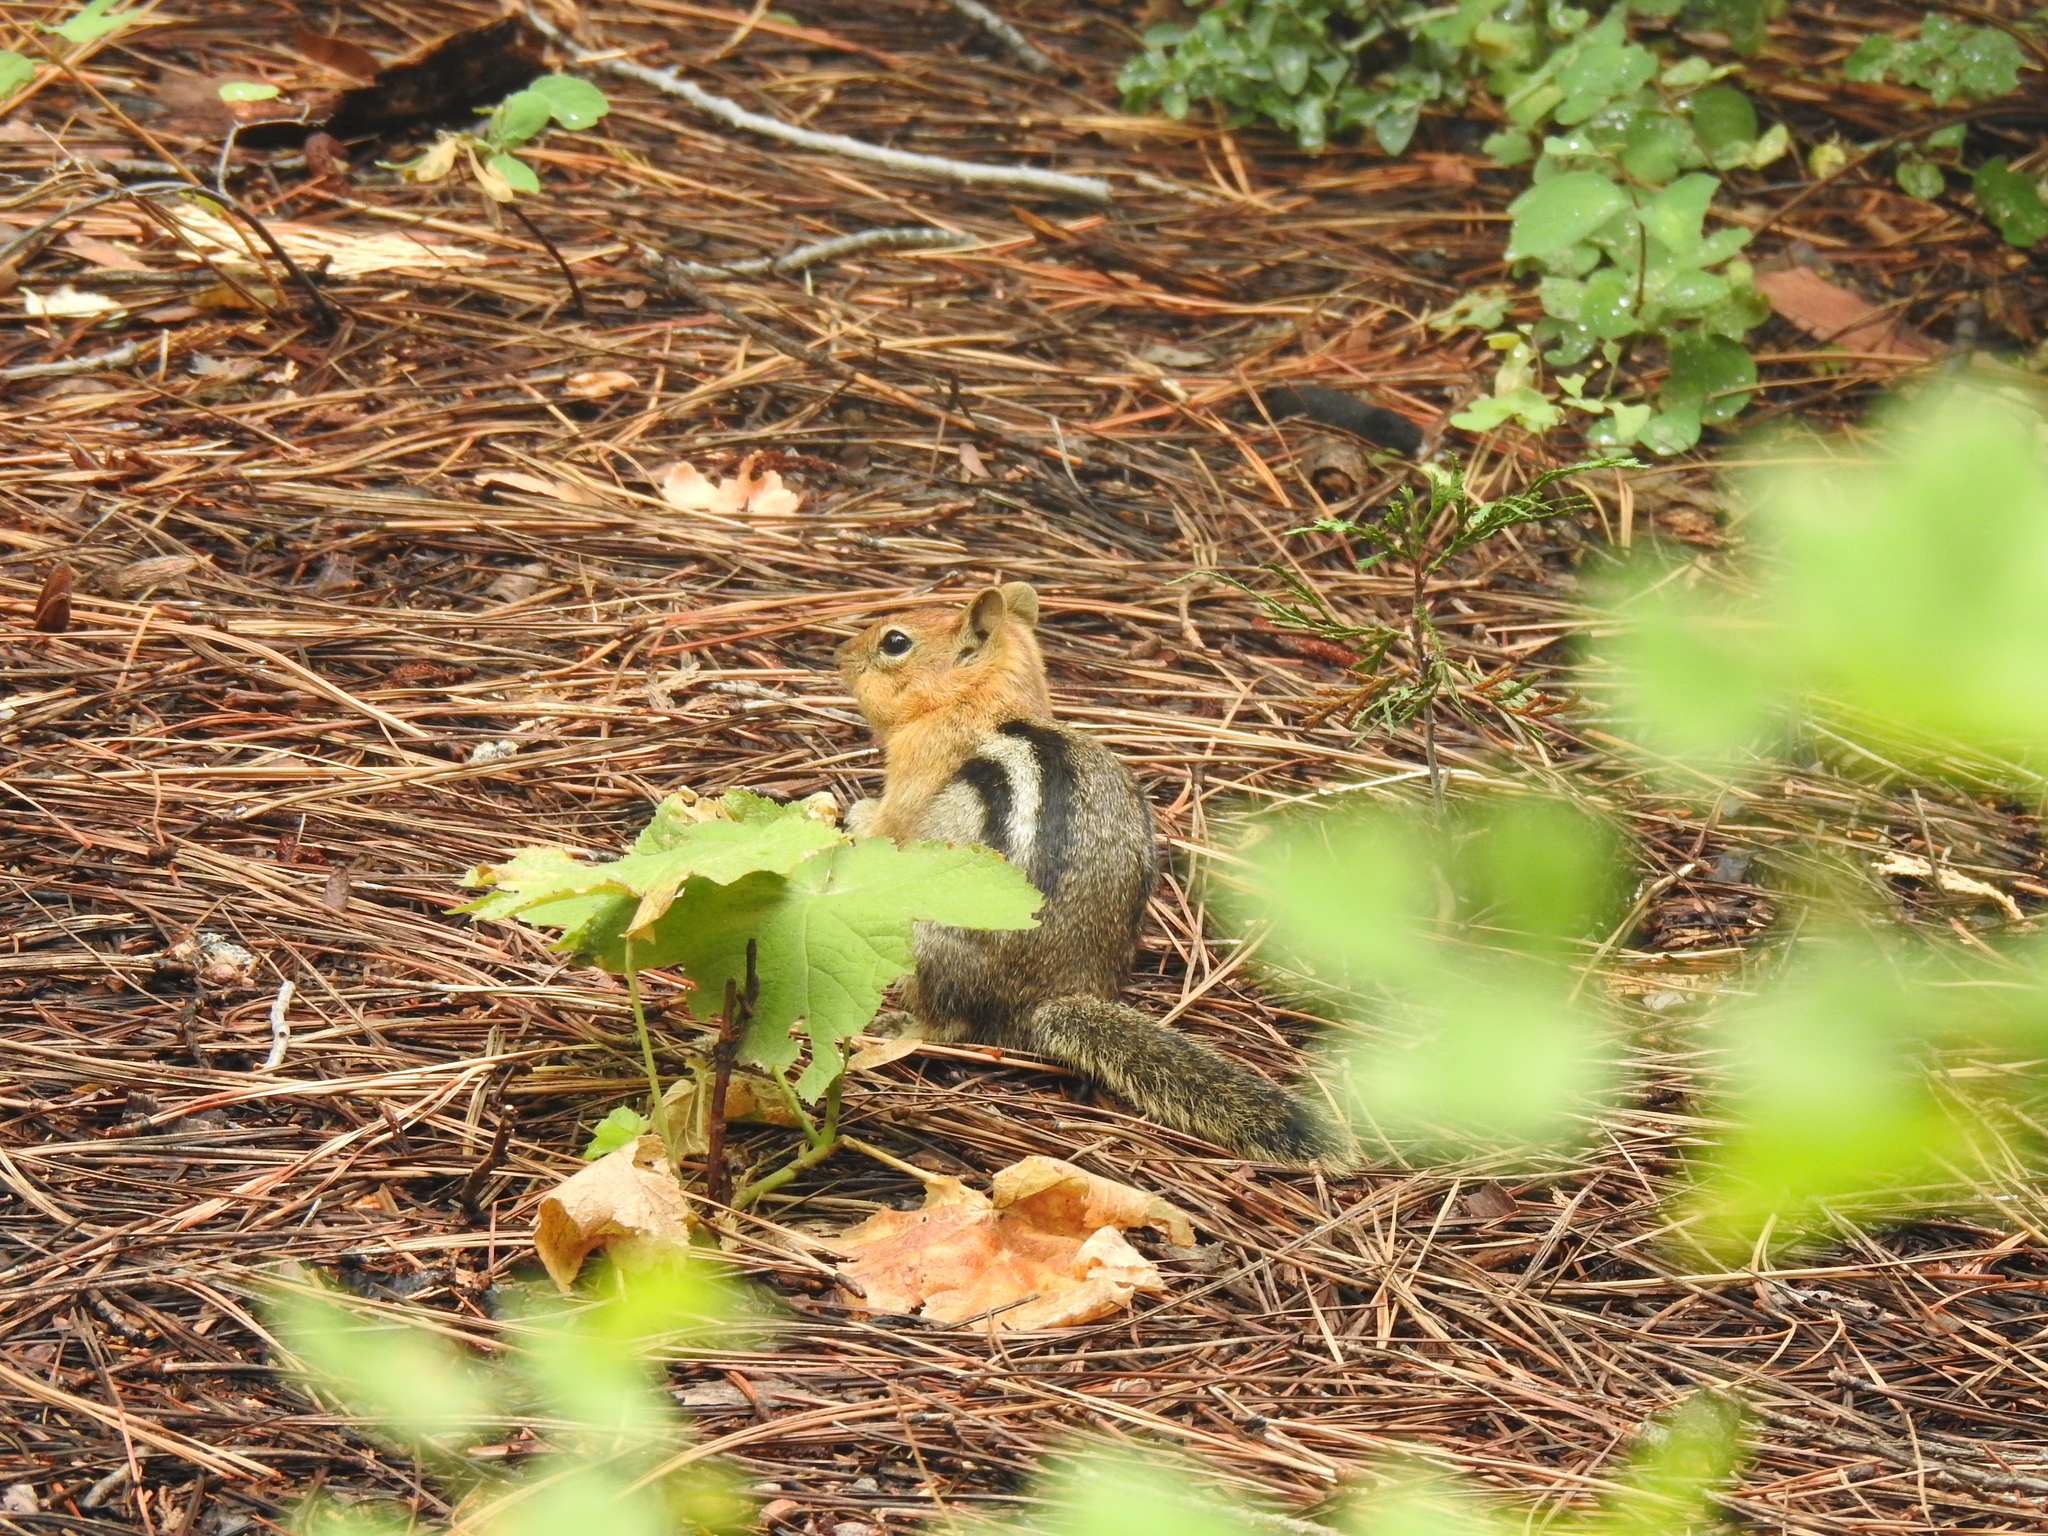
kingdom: Animalia
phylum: Chordata
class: Mammalia
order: Rodentia
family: Sciuridae
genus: Callospermophilus
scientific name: Callospermophilus lateralis
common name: Golden-mantled ground squirrel
